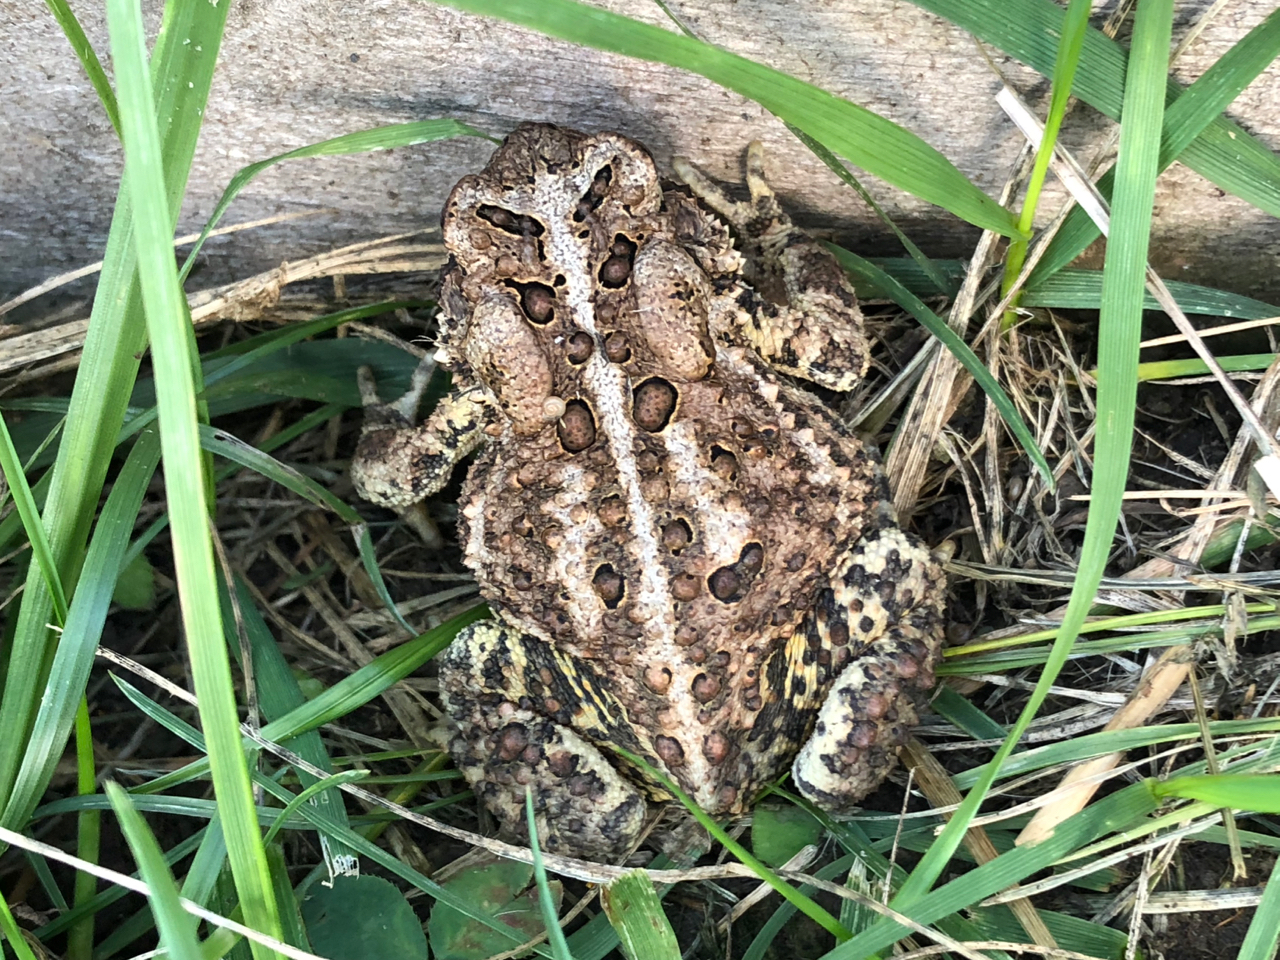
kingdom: Animalia
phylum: Chordata
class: Amphibia
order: Anura
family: Bufonidae
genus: Anaxyrus
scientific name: Anaxyrus americanus
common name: American toad
